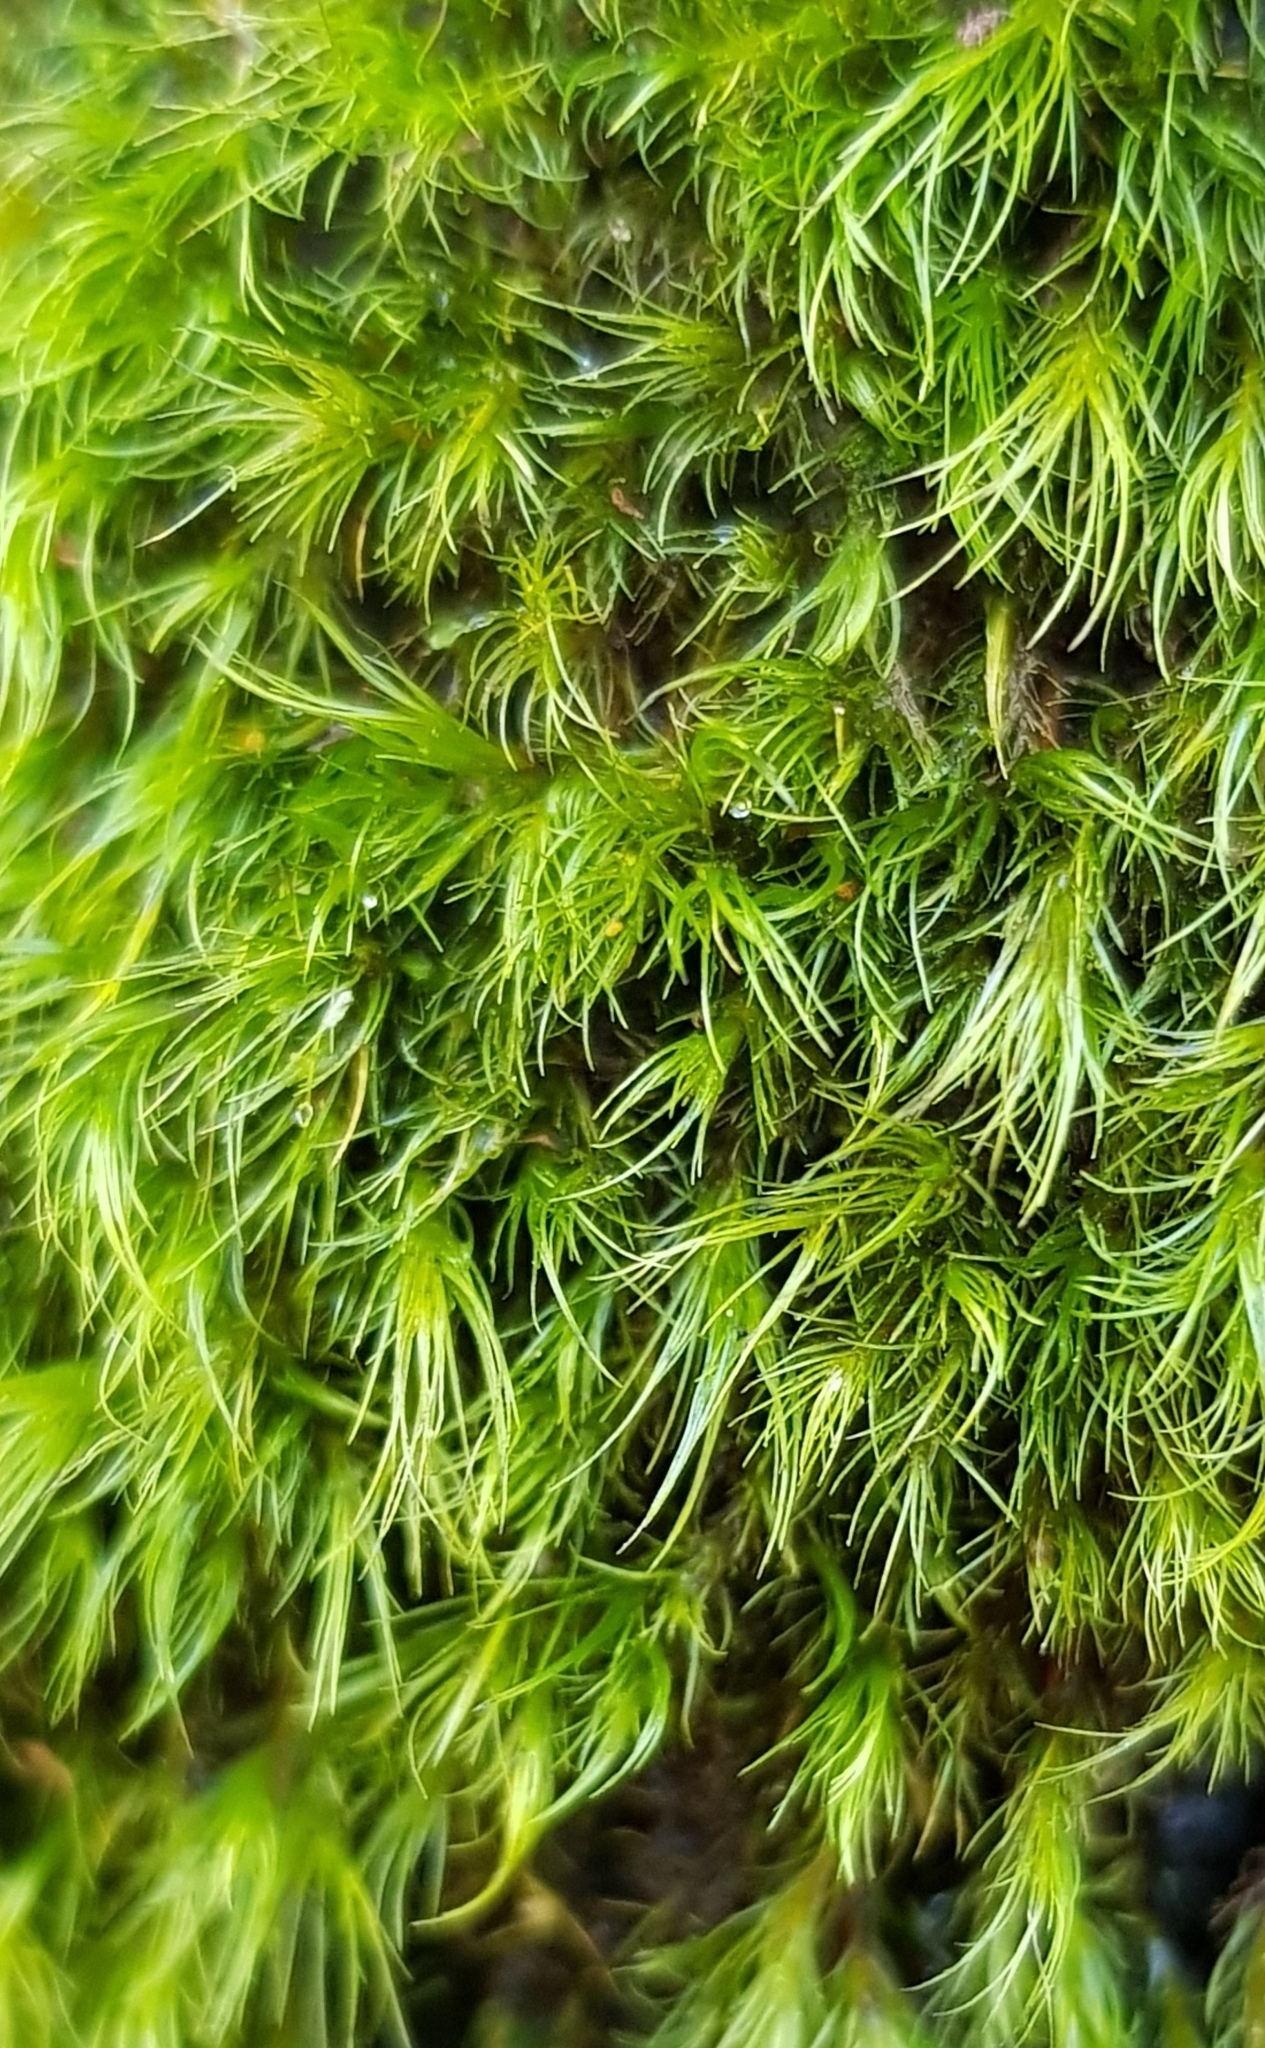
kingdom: Plantae
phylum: Bryophyta
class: Bryopsida
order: Dicranales
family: Dicranellaceae
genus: Dicranella
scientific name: Dicranella heteromalla
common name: Silky forklet moss
